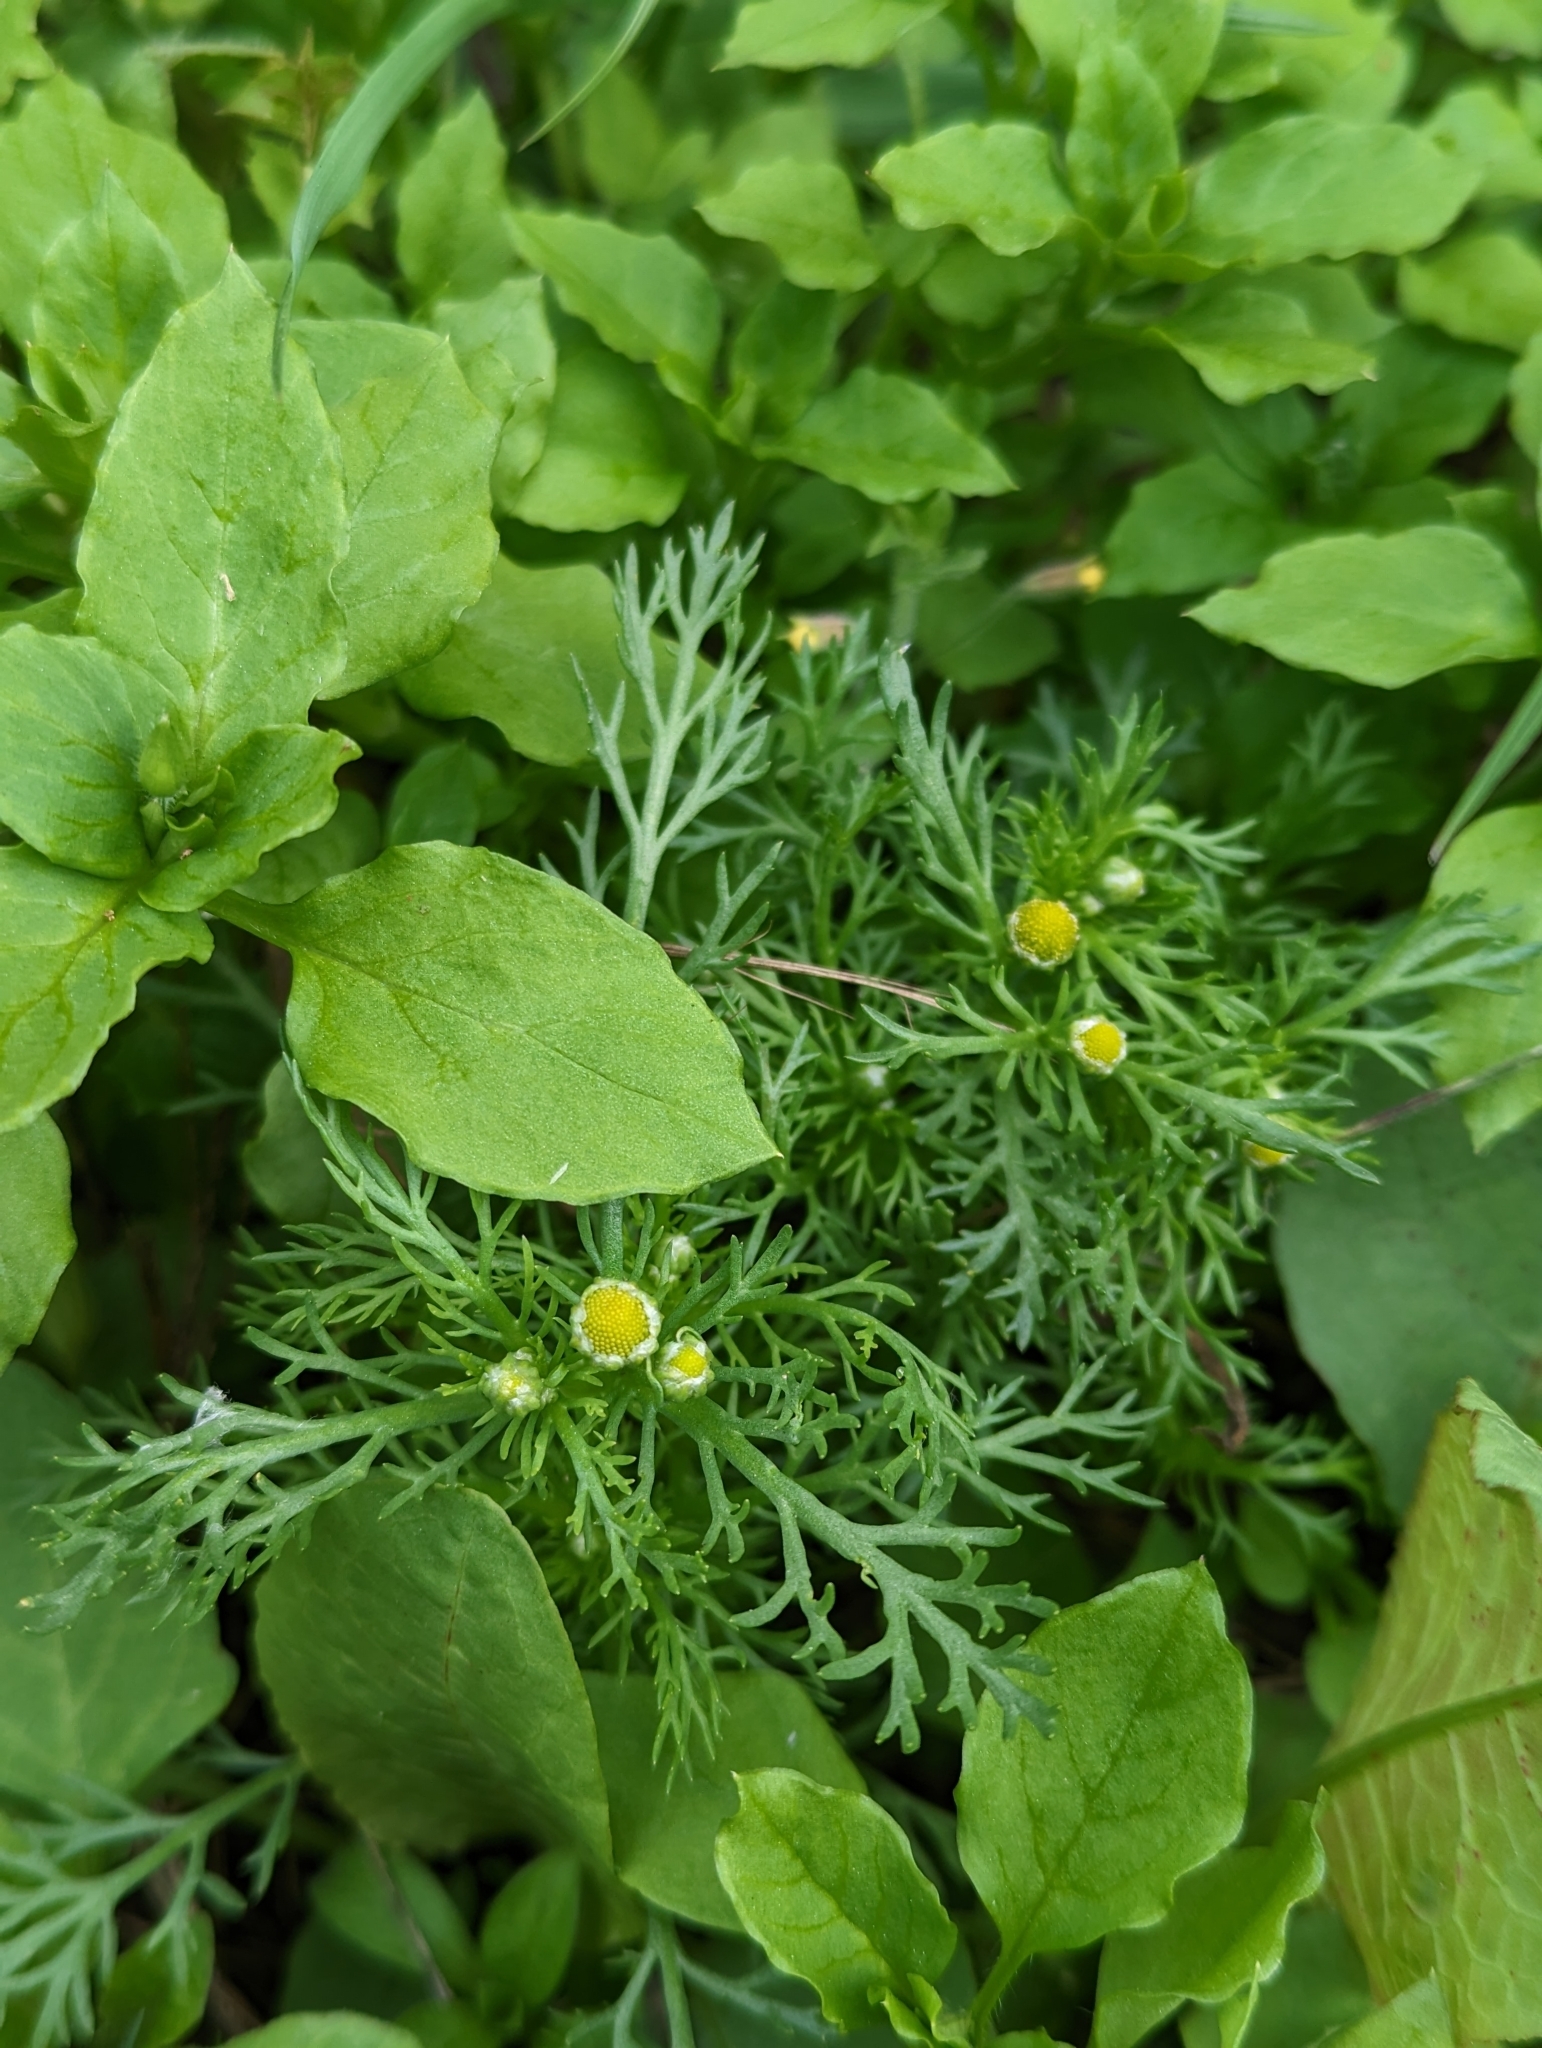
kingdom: Plantae
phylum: Tracheophyta
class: Magnoliopsida
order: Asterales
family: Asteraceae
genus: Matricaria
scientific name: Matricaria discoidea
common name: Disc mayweed
